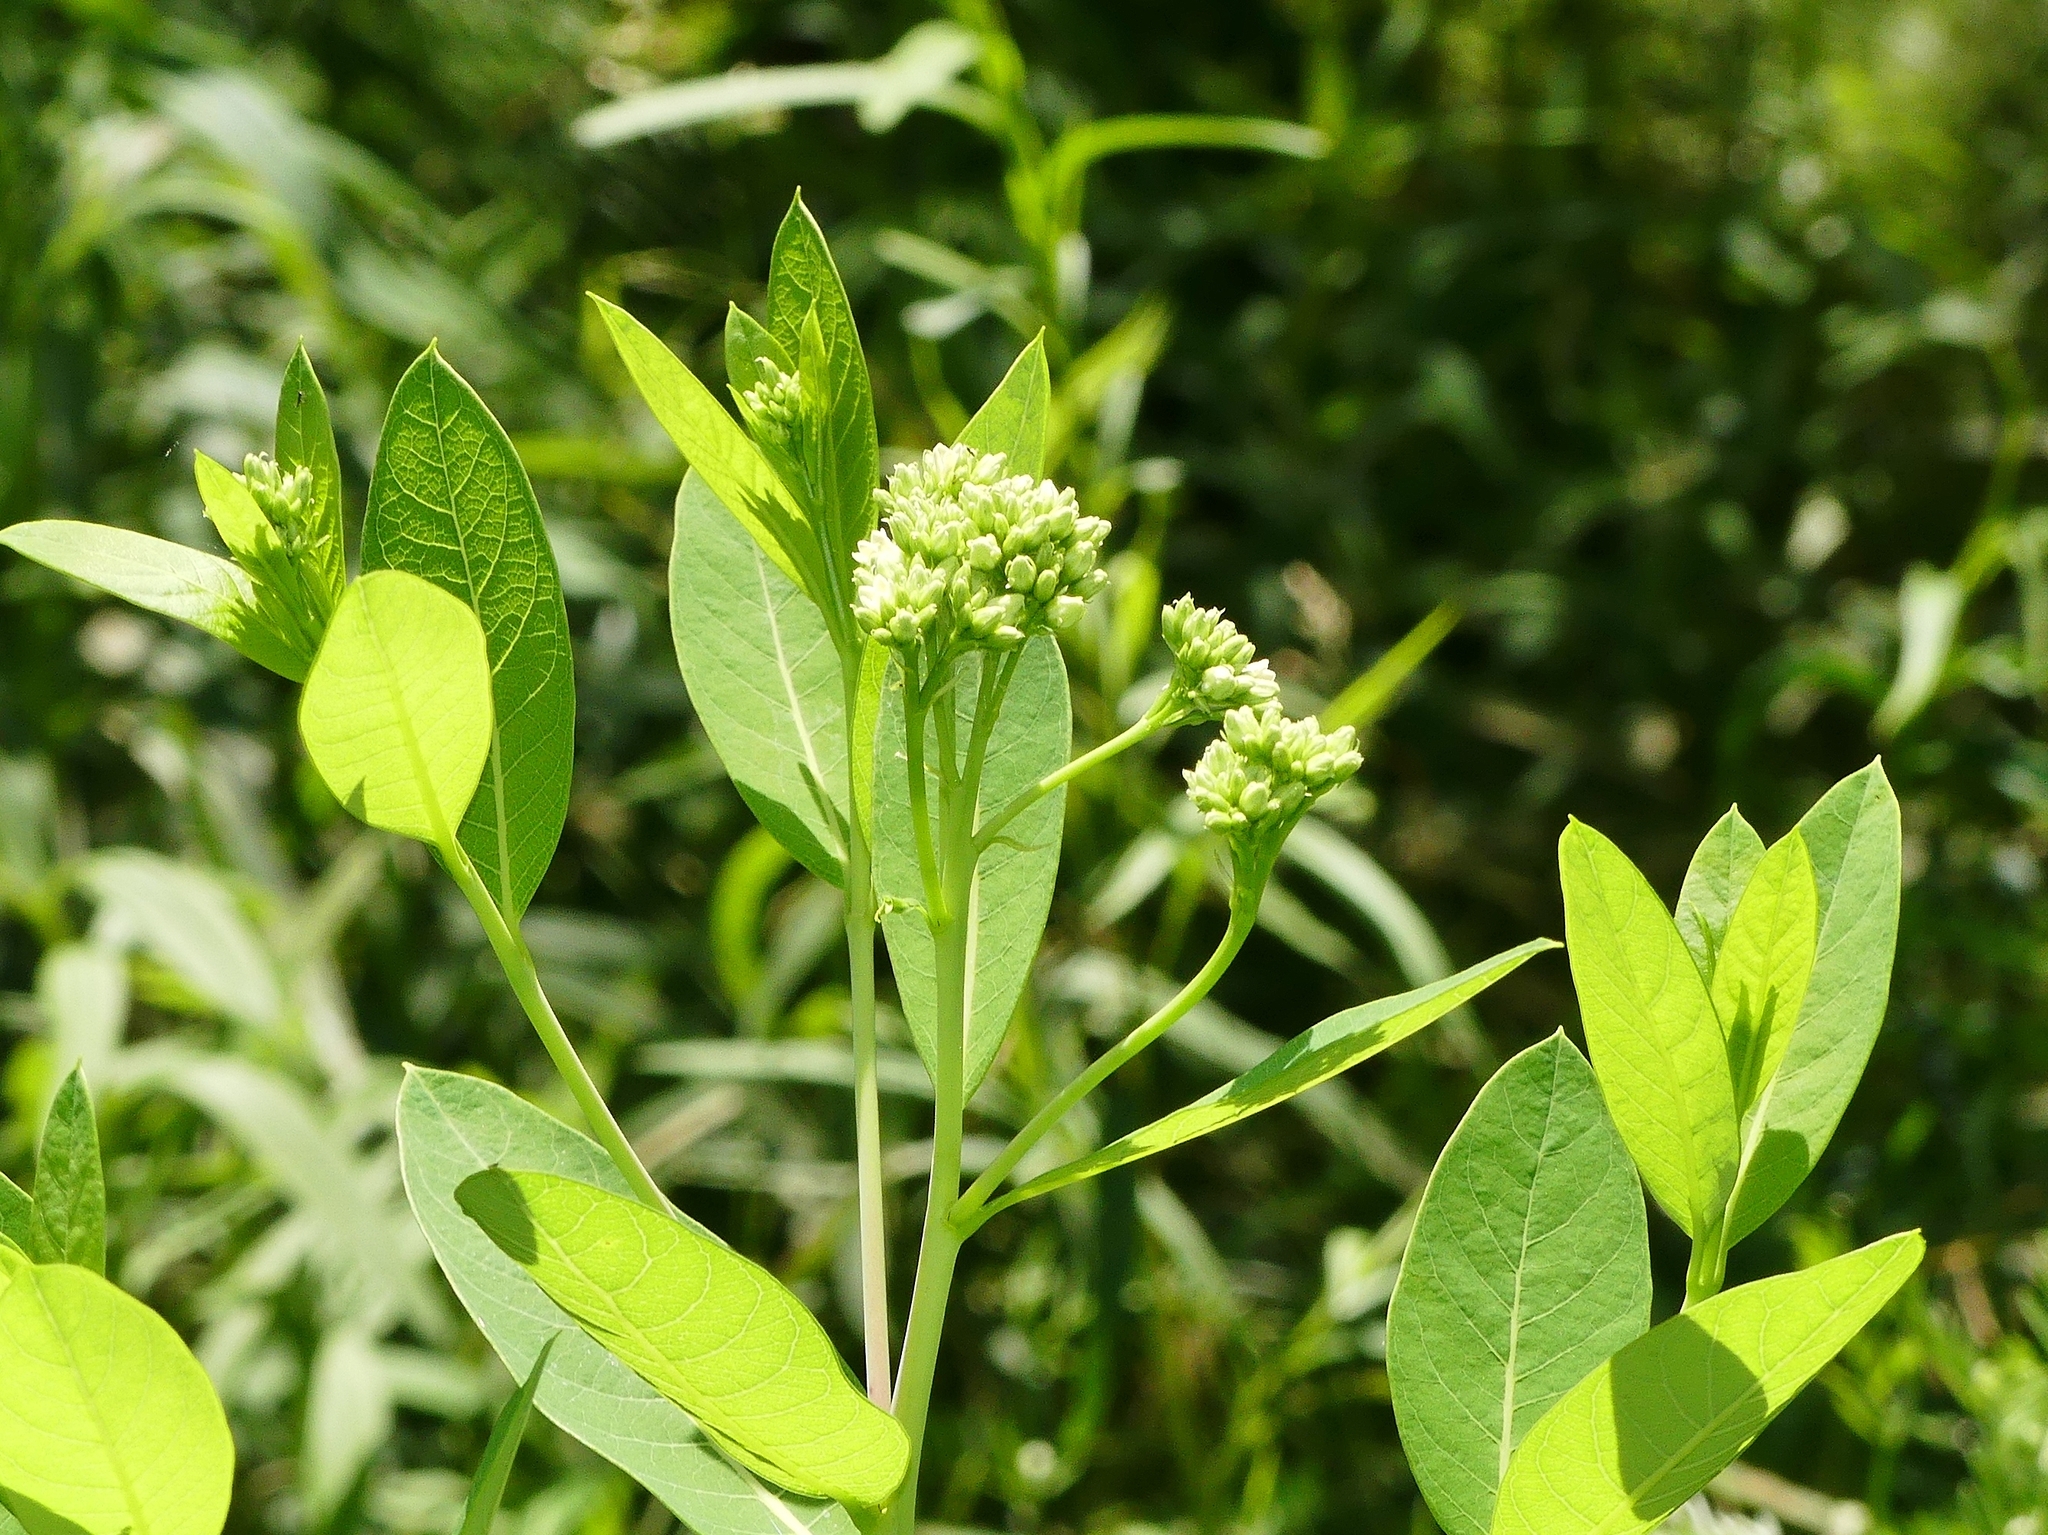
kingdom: Plantae
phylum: Tracheophyta
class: Magnoliopsida
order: Gentianales
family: Apocynaceae
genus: Apocynum
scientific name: Apocynum cannabinum
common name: Hemp dogbane
